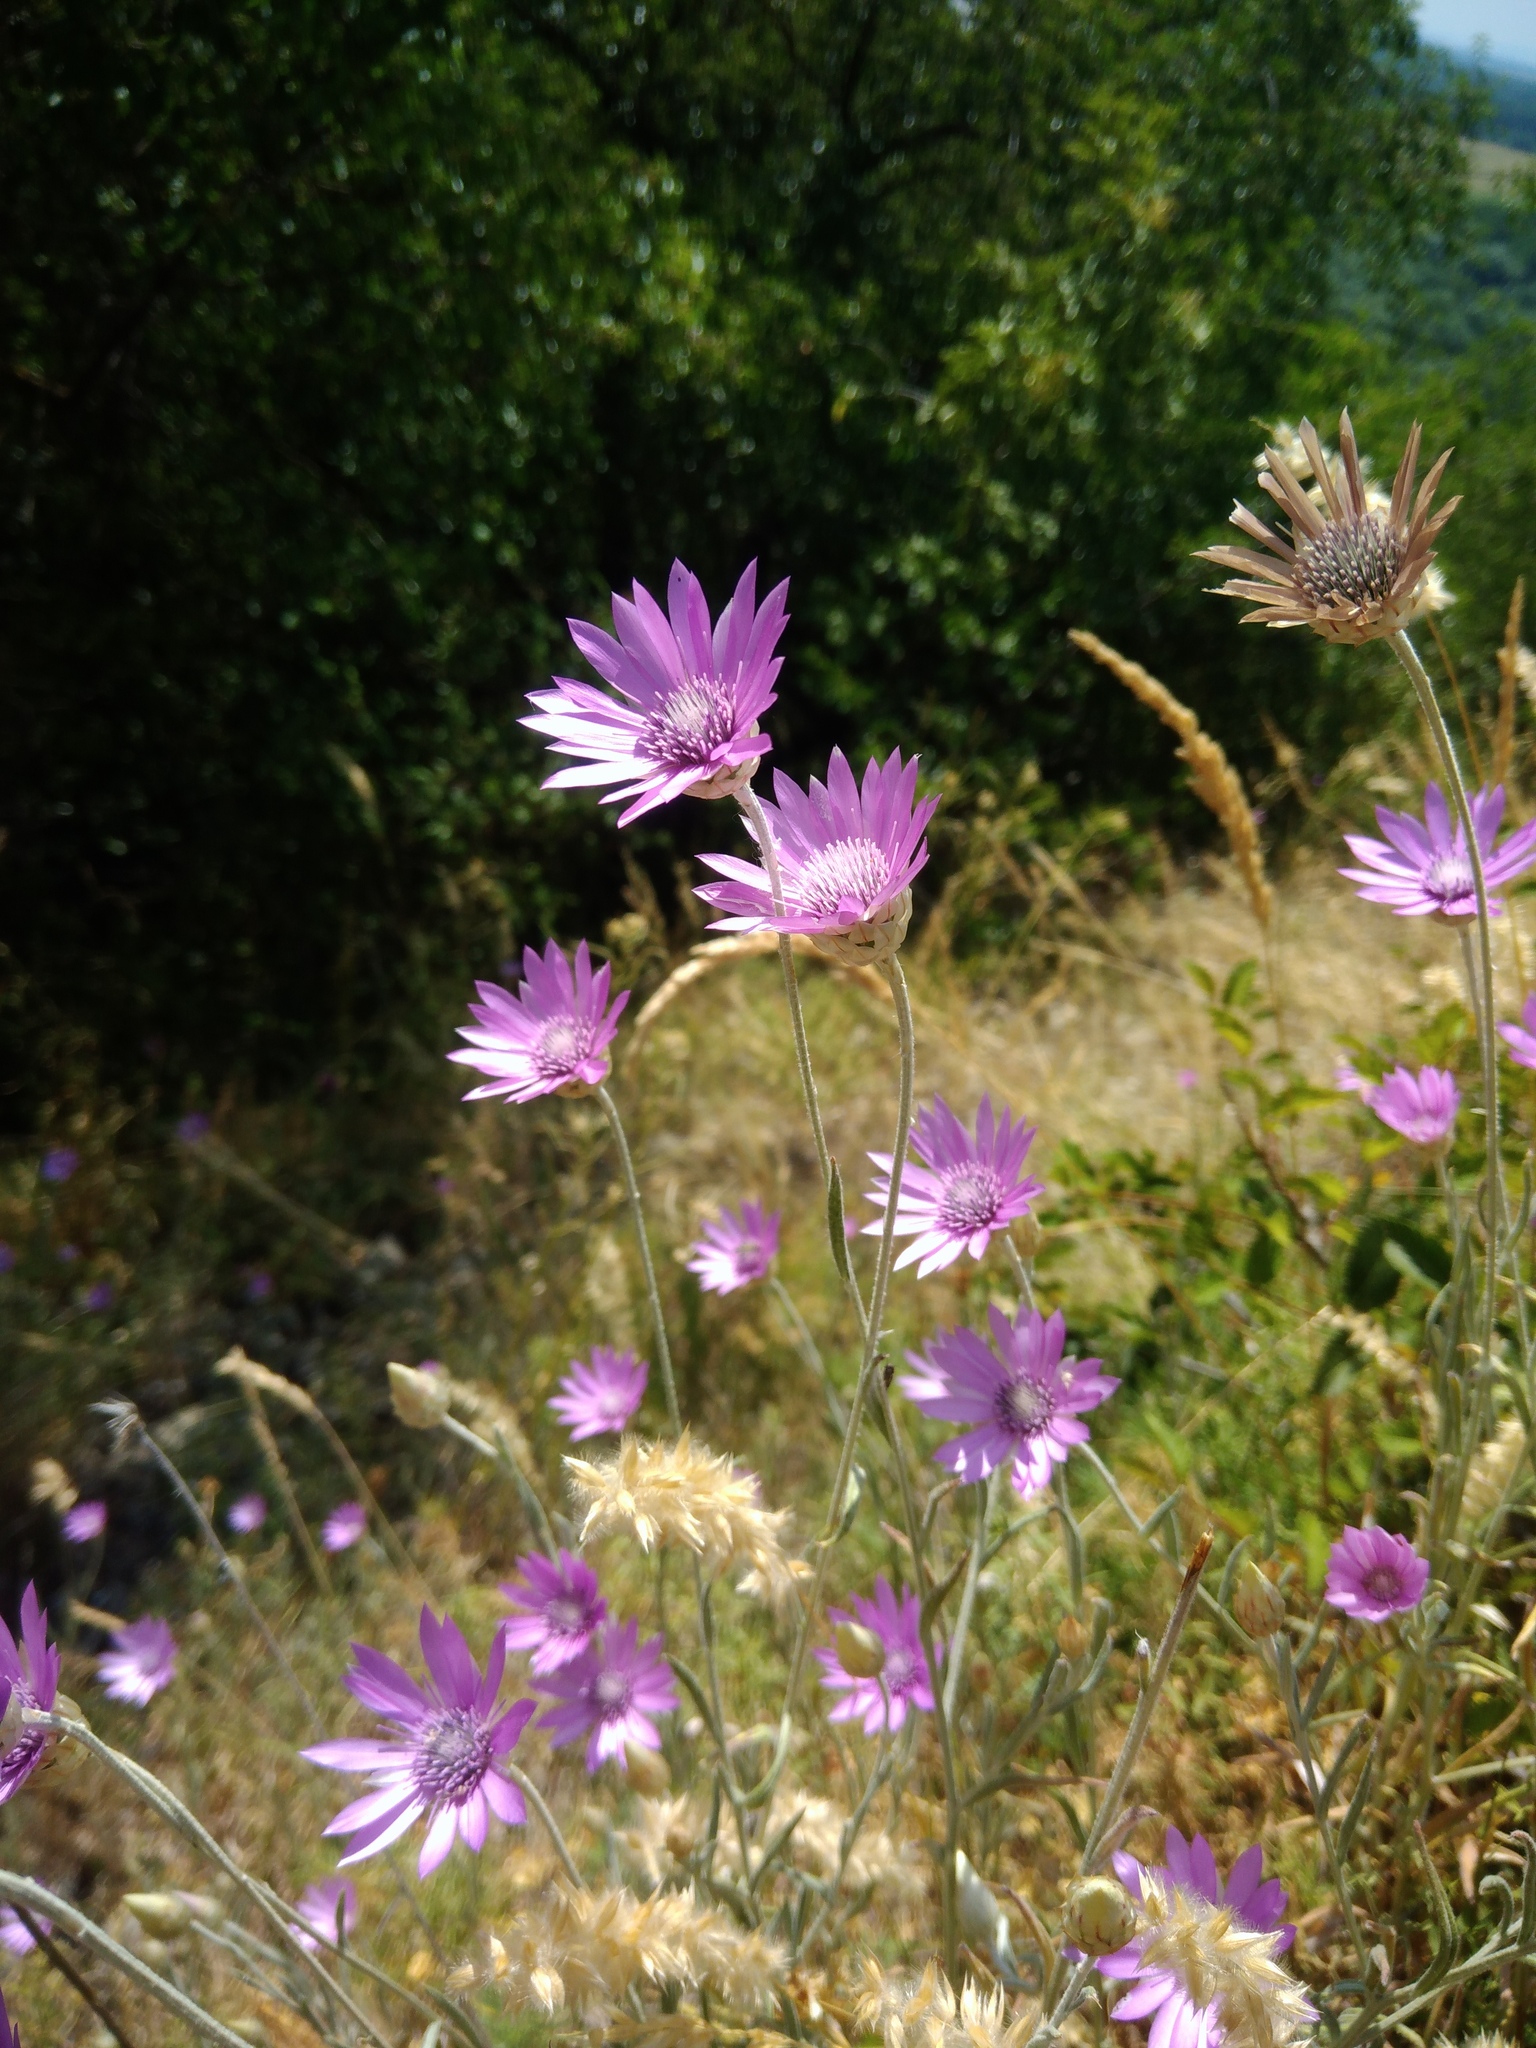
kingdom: Plantae
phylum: Tracheophyta
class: Magnoliopsida
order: Asterales
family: Asteraceae
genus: Xeranthemum
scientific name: Xeranthemum annuum
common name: Immortelle
